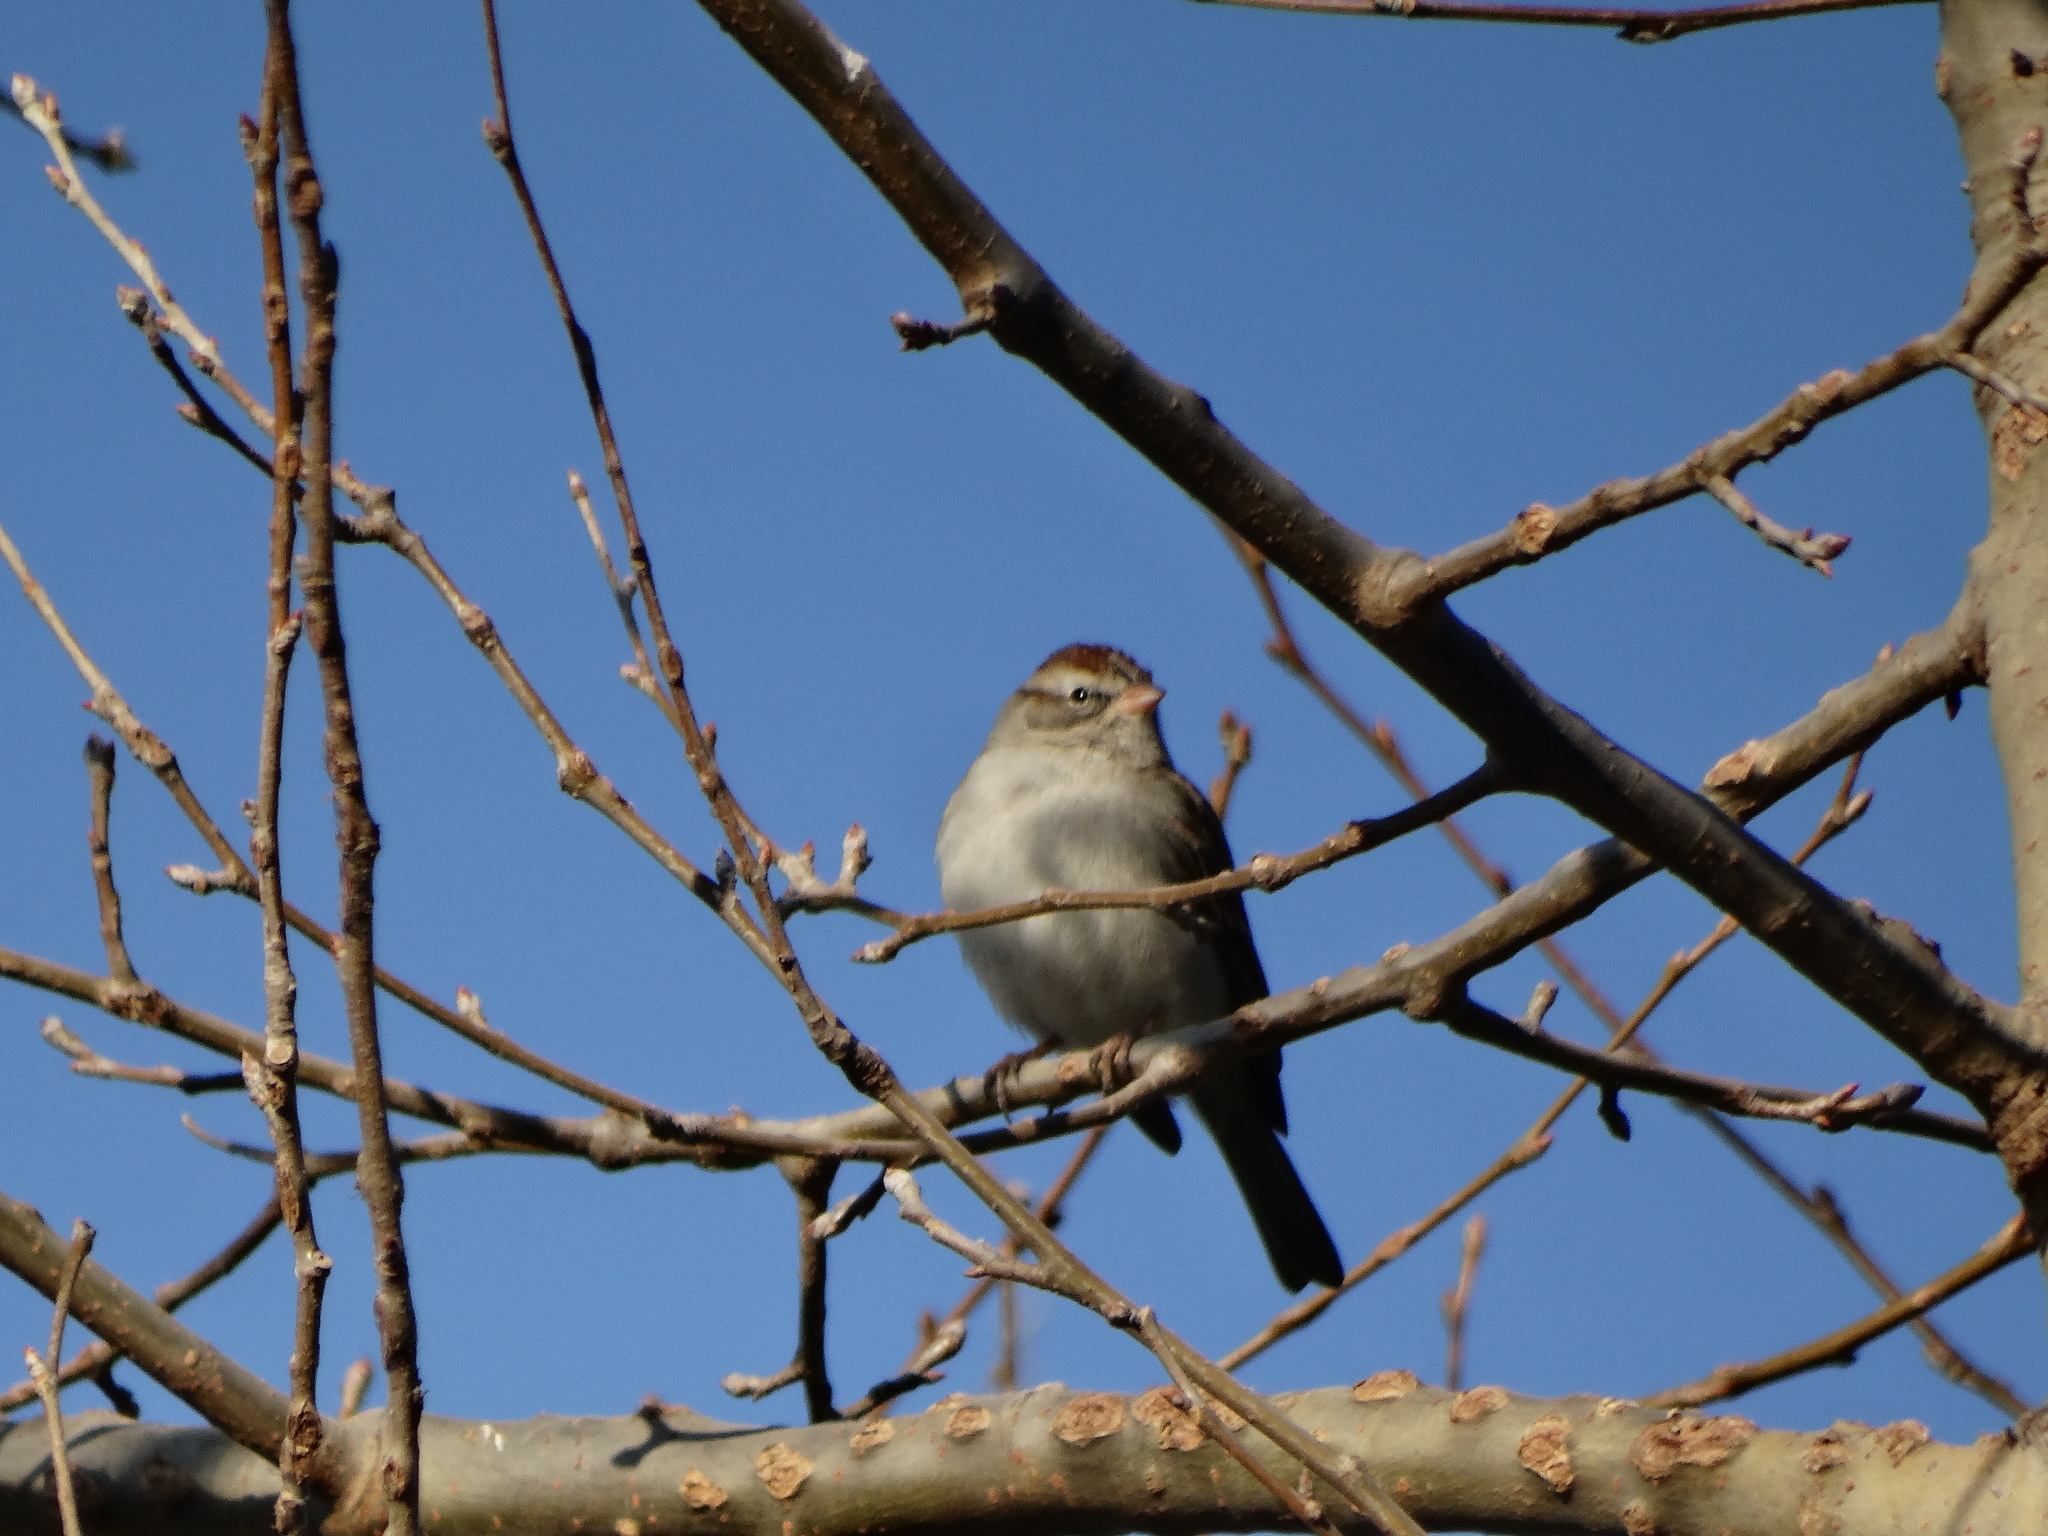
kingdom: Animalia
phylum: Chordata
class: Aves
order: Passeriformes
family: Passerellidae
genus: Spizella
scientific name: Spizella passerina
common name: Chipping sparrow
